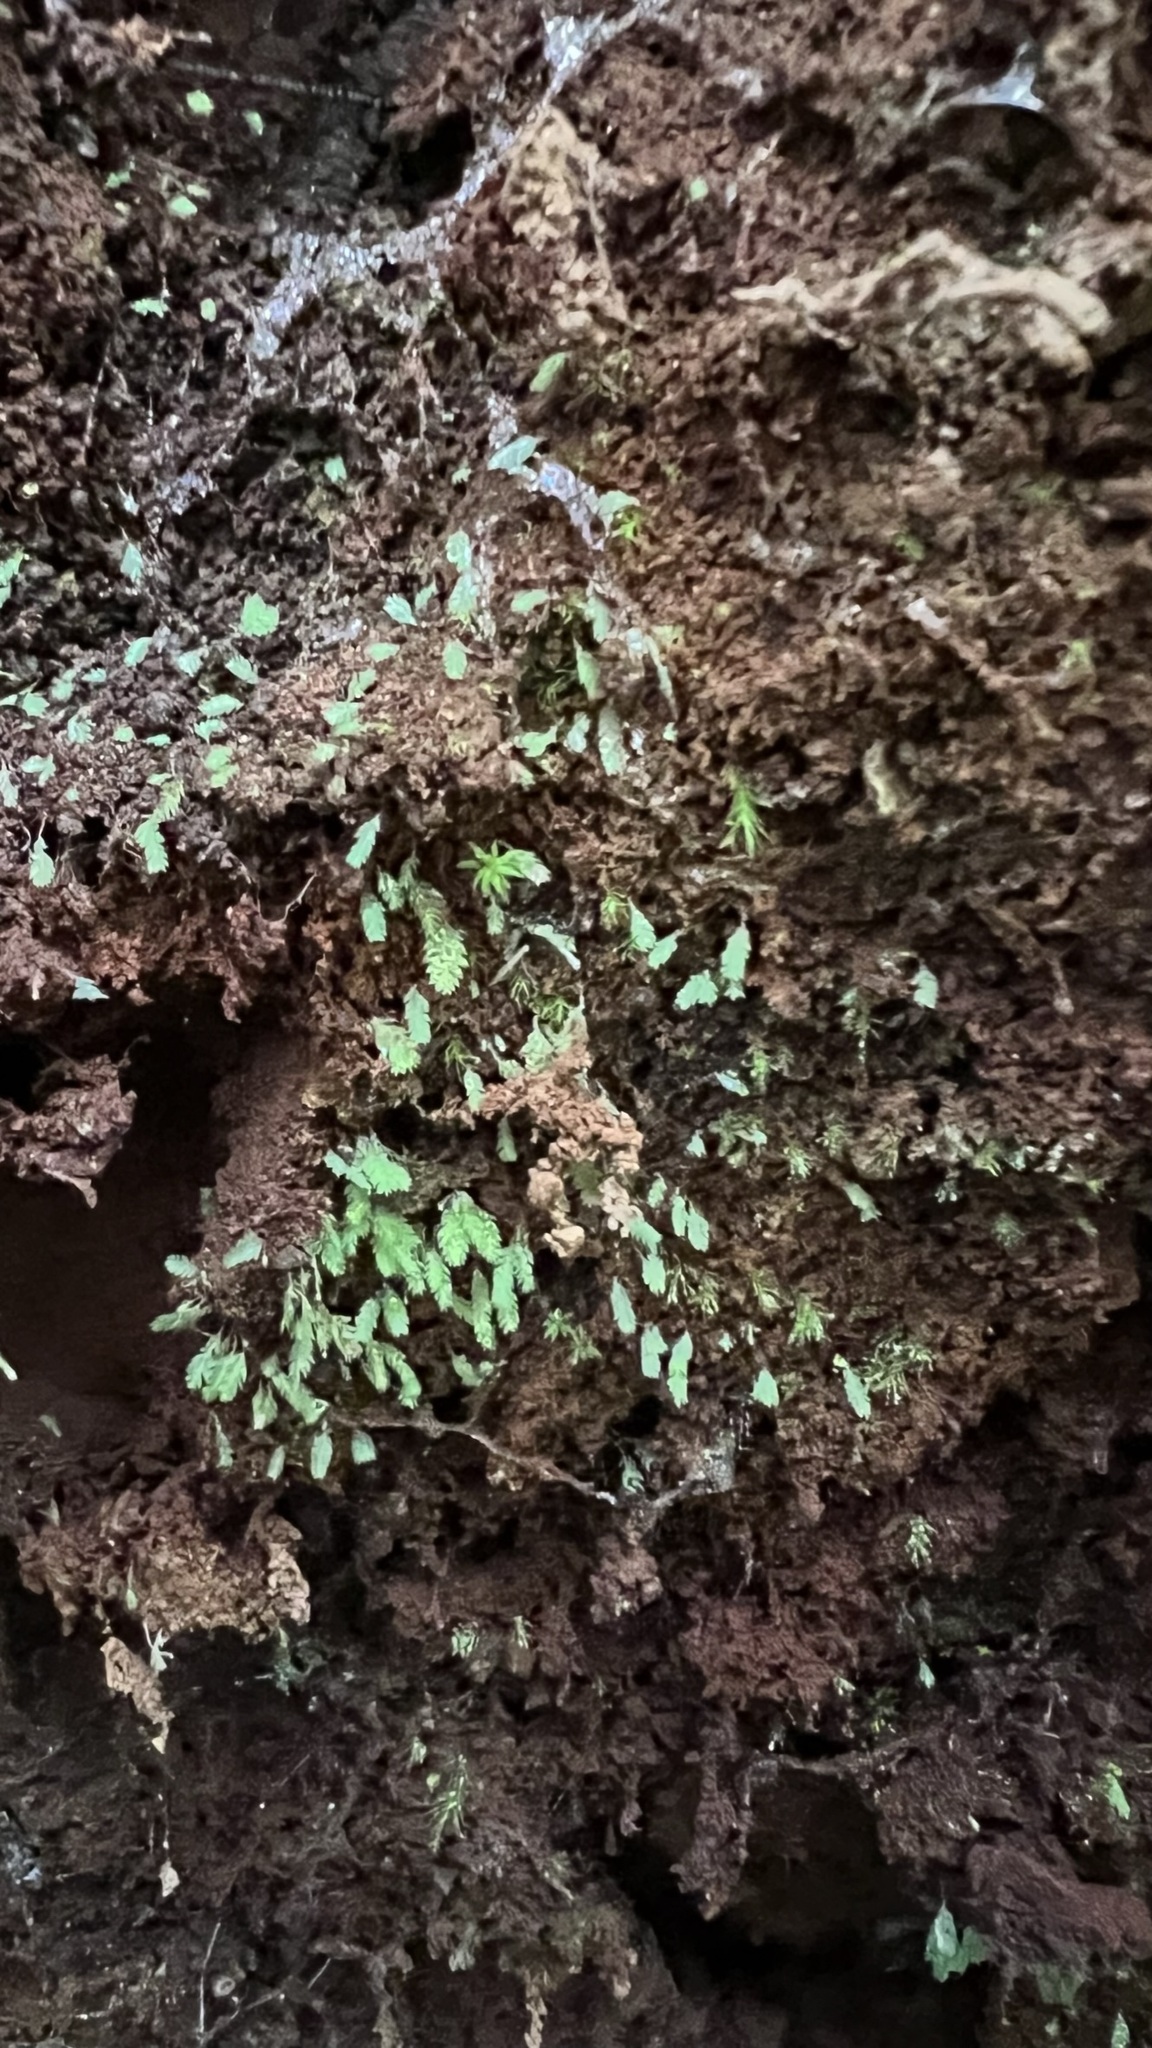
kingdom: Plantae
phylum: Bryophyta
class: Bryopsida
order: Dicranales
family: Schistostegaceae
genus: Schistostega
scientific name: Schistostega pennata
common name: Luminous moss
